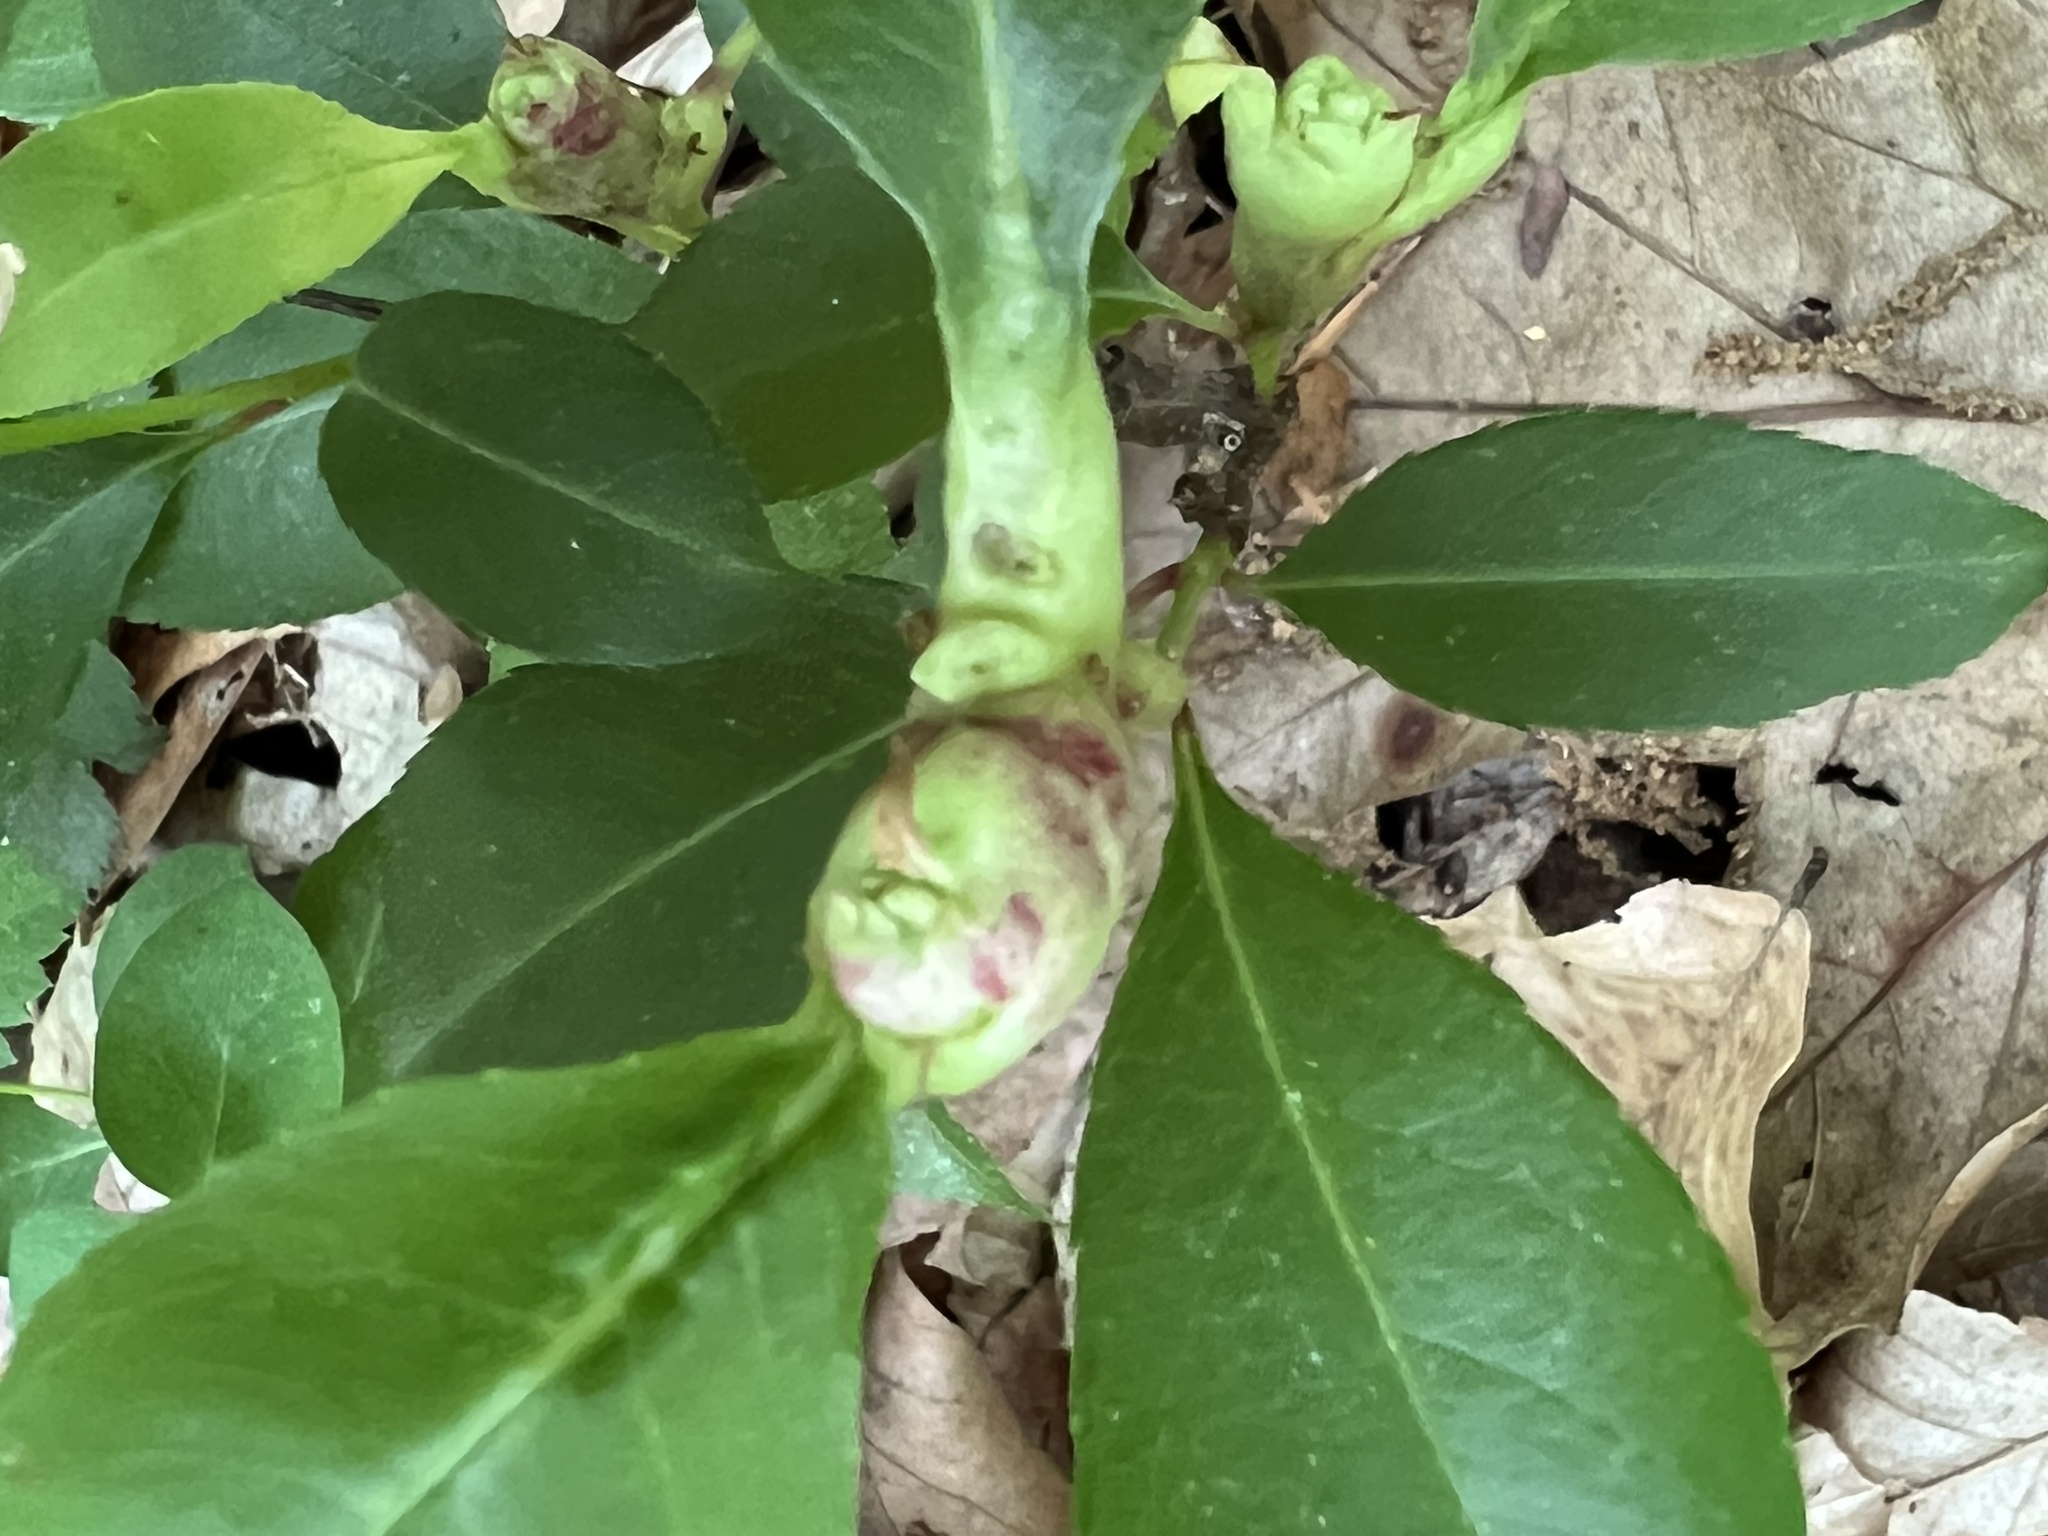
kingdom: Animalia
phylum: Arthropoda
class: Insecta
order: Diptera
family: Cecidomyiidae
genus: Contarinia
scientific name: Contarinia cerasiserotinae
